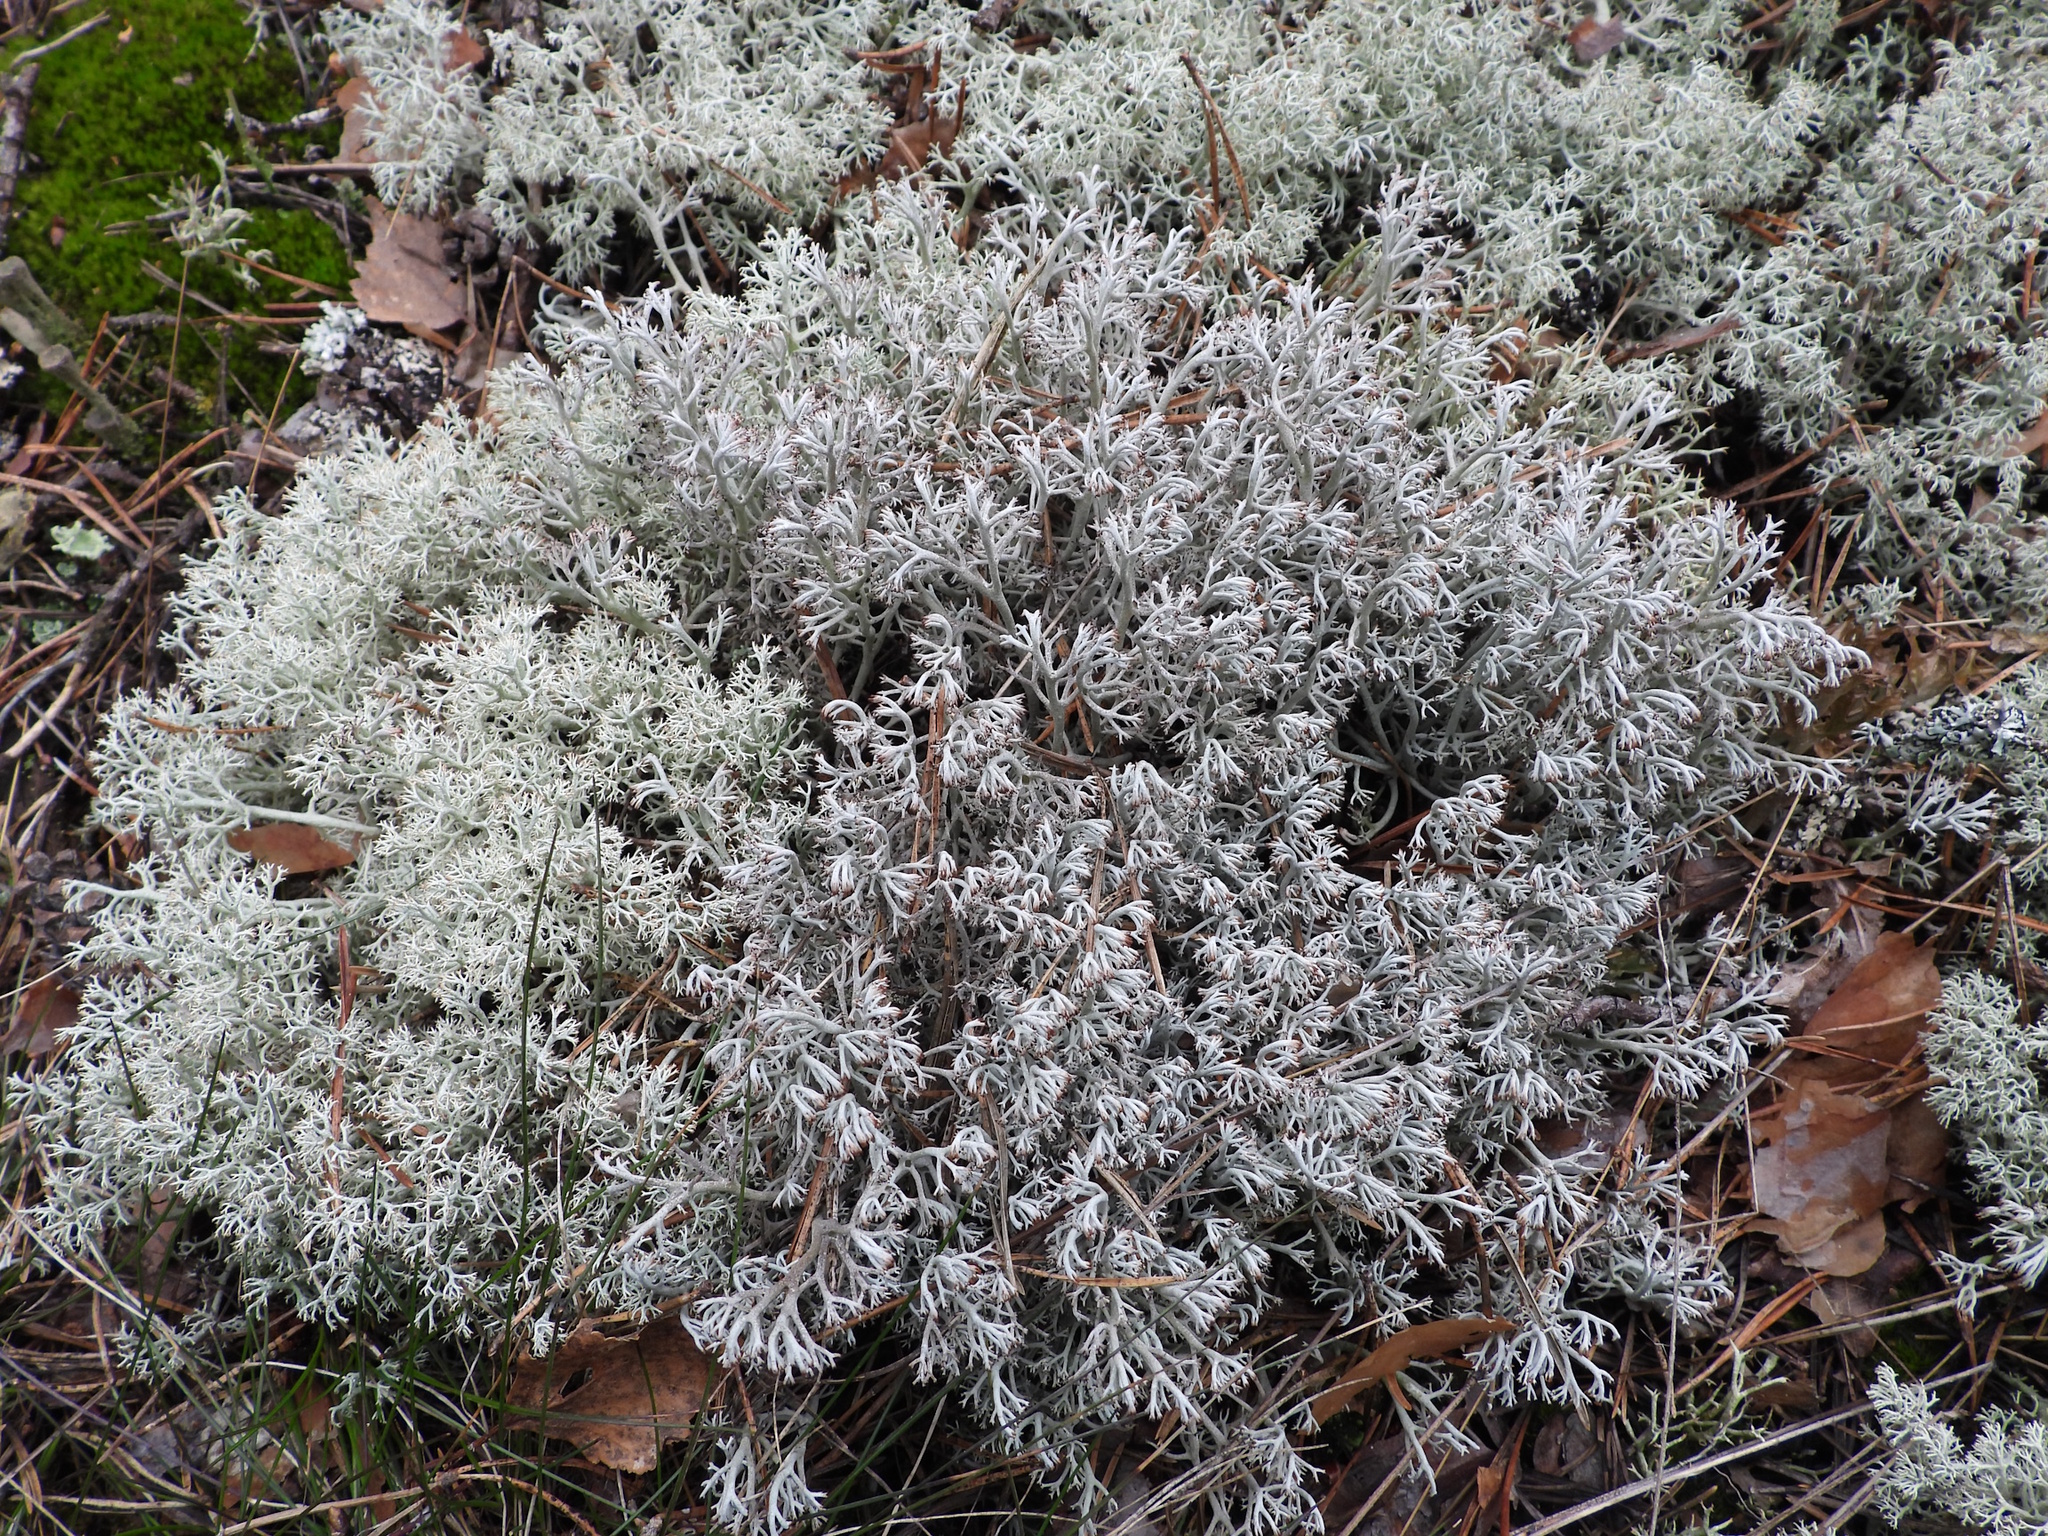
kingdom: Fungi
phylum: Ascomycota
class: Lecanoromycetes
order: Lecanorales
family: Cladoniaceae
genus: Cladonia
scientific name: Cladonia rangiferina
